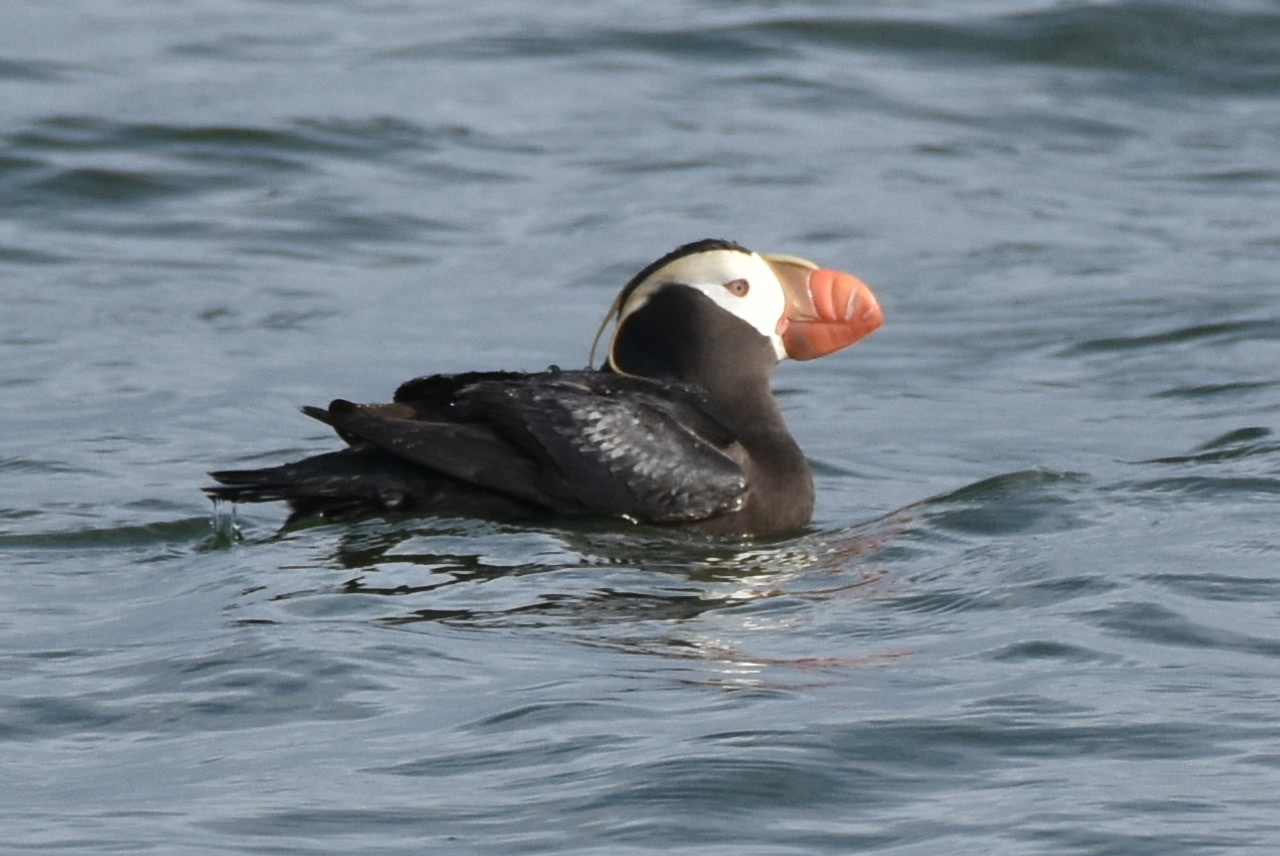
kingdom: Animalia
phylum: Chordata
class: Aves
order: Charadriiformes
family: Alcidae
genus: Fratercula
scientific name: Fratercula cirrhata
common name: Tufted puffin
